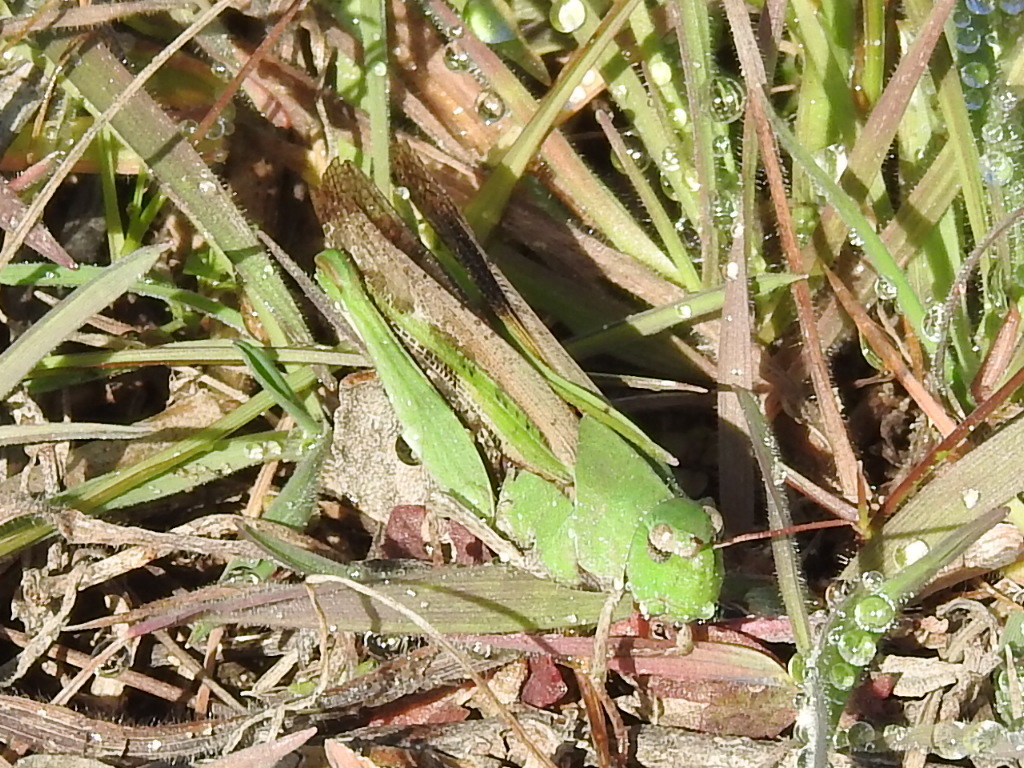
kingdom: Animalia
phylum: Arthropoda
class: Insecta
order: Orthoptera
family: Acrididae
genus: Chortophaga
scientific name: Chortophaga viridifasciata
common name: Green-striped grasshopper
